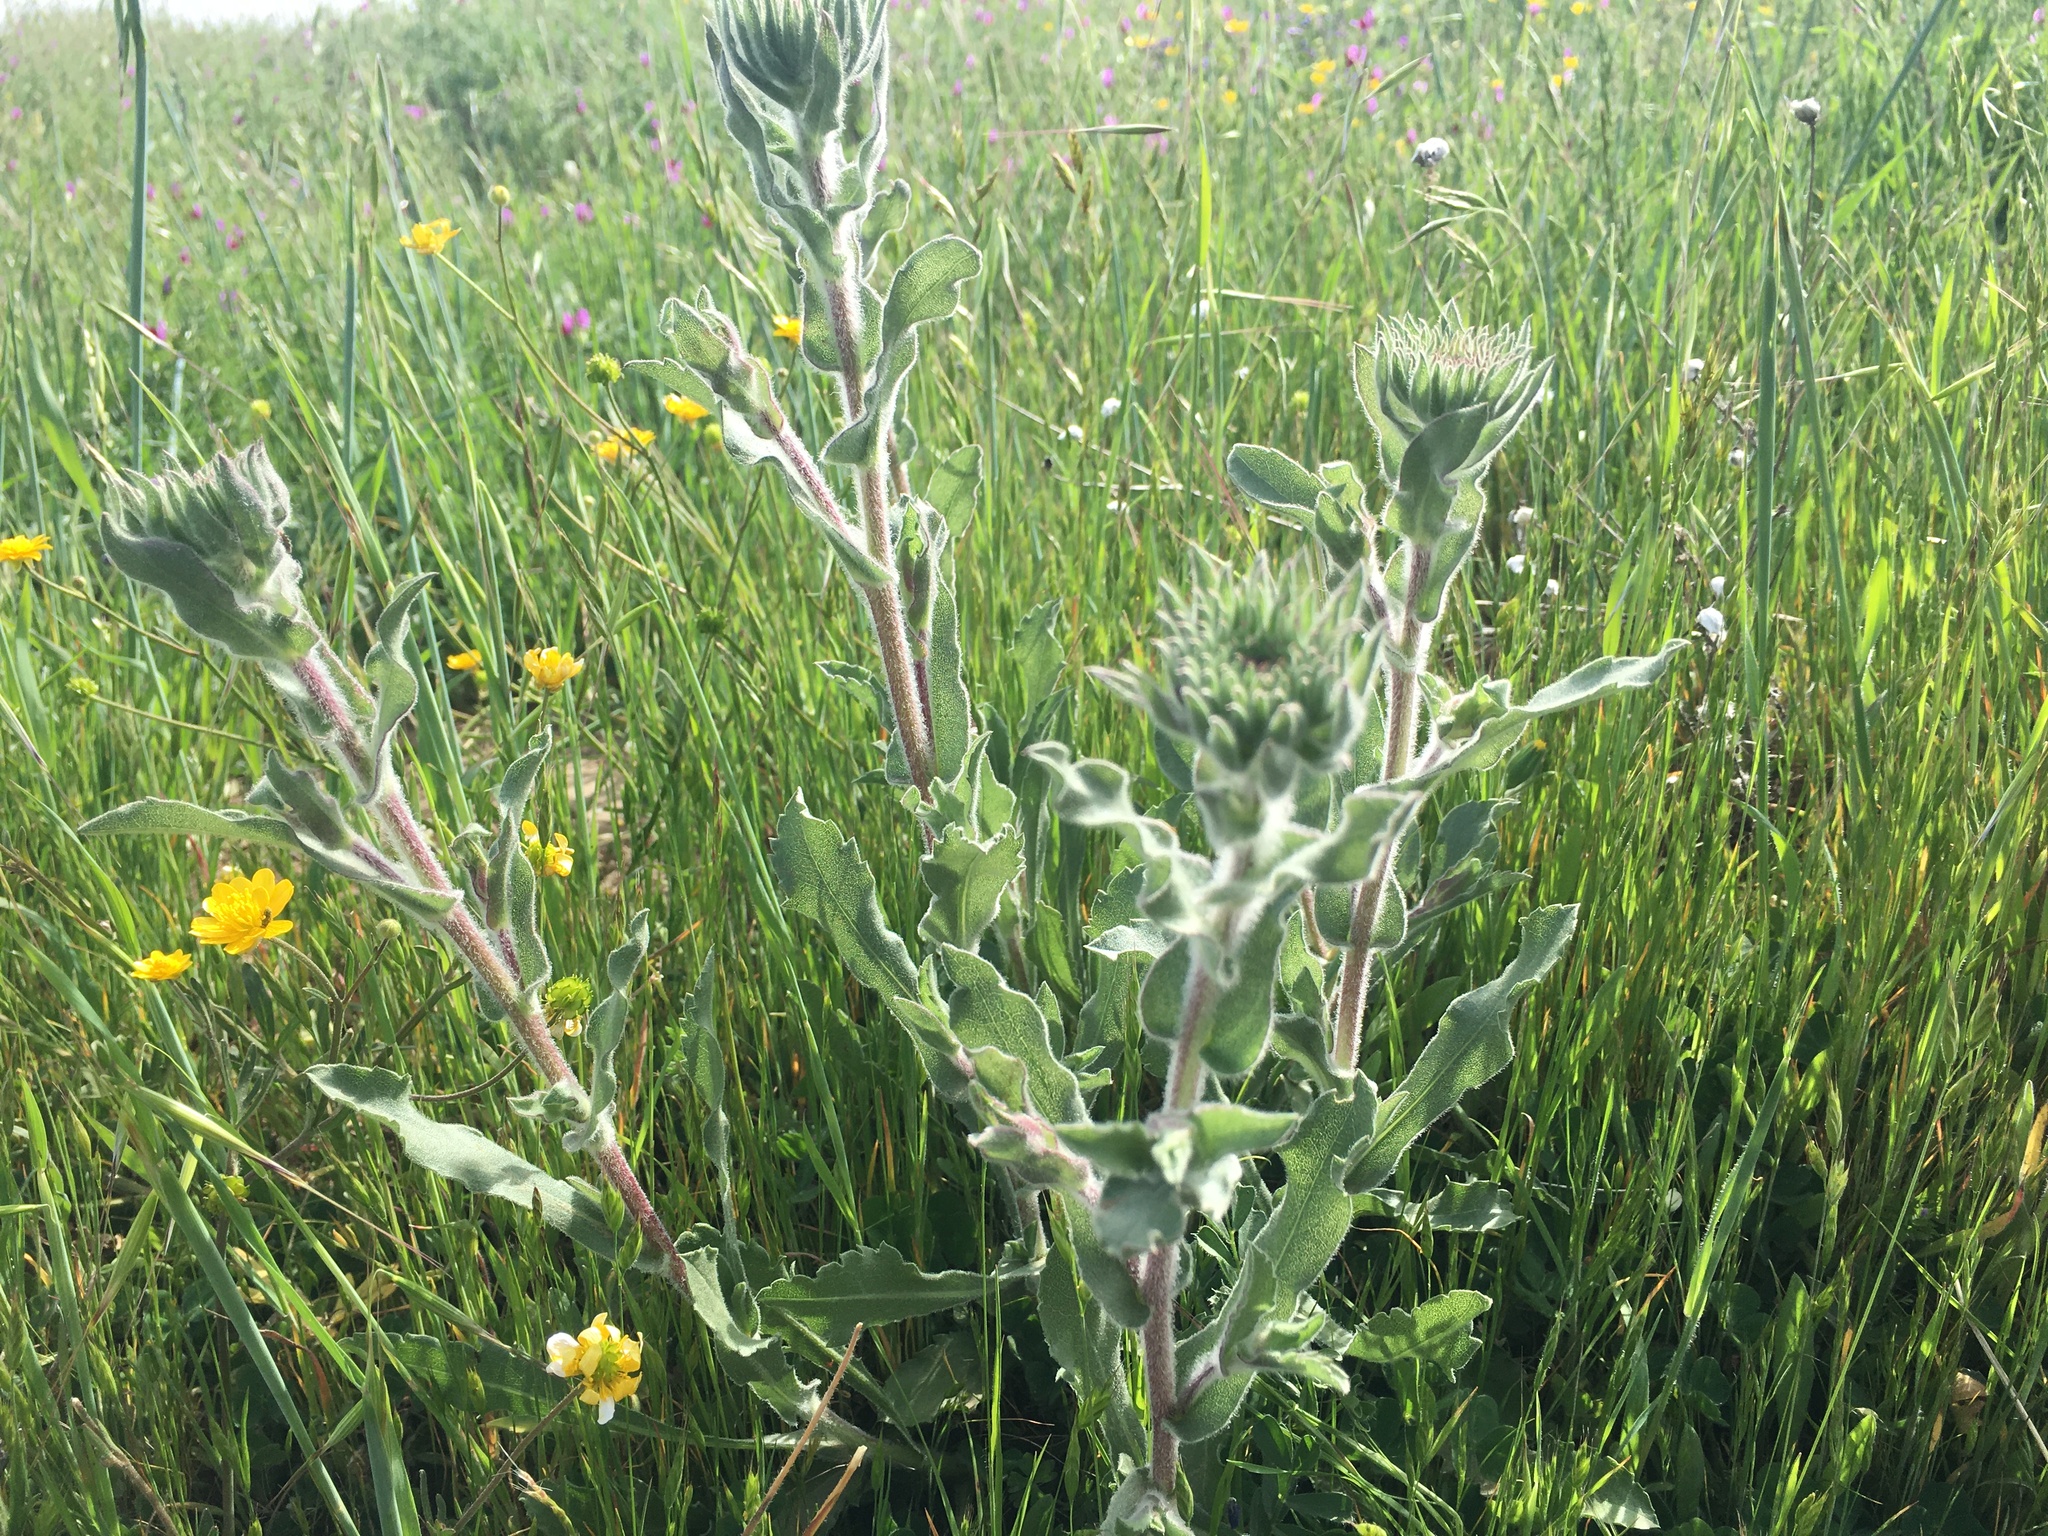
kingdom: Plantae
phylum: Tracheophyta
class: Magnoliopsida
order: Asterales
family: Asteraceae
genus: Grindelia
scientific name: Grindelia hirsutula
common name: Hairy gumweed
